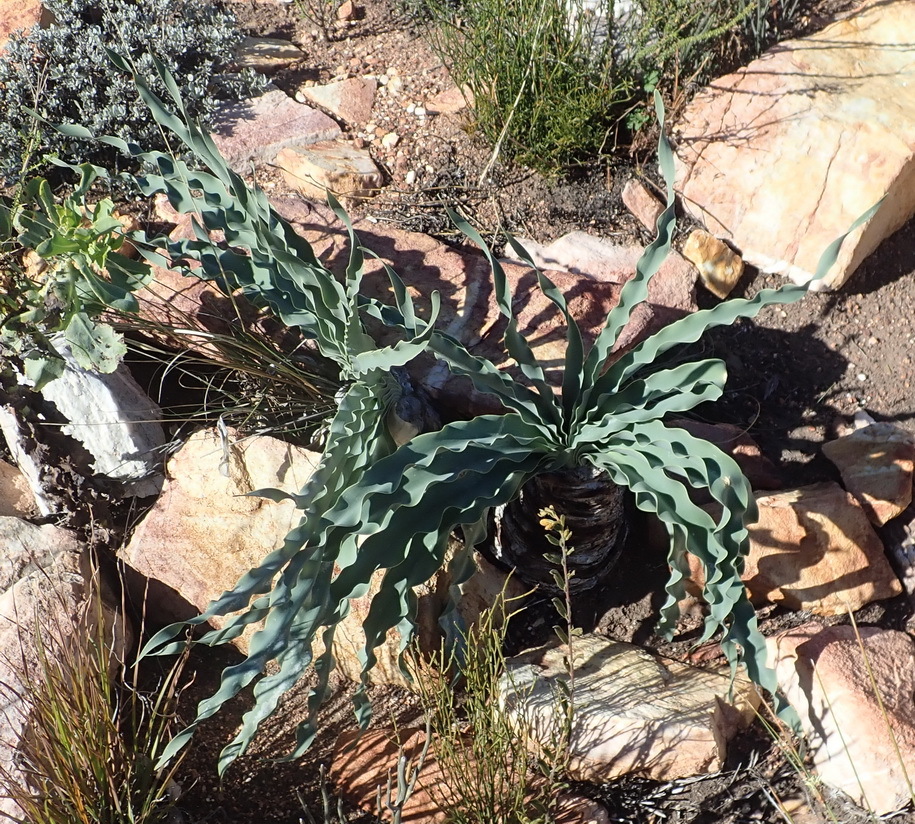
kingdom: Plantae
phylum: Tracheophyta
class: Liliopsida
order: Asparagales
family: Amaryllidaceae
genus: Boophone
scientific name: Boophone disticha
